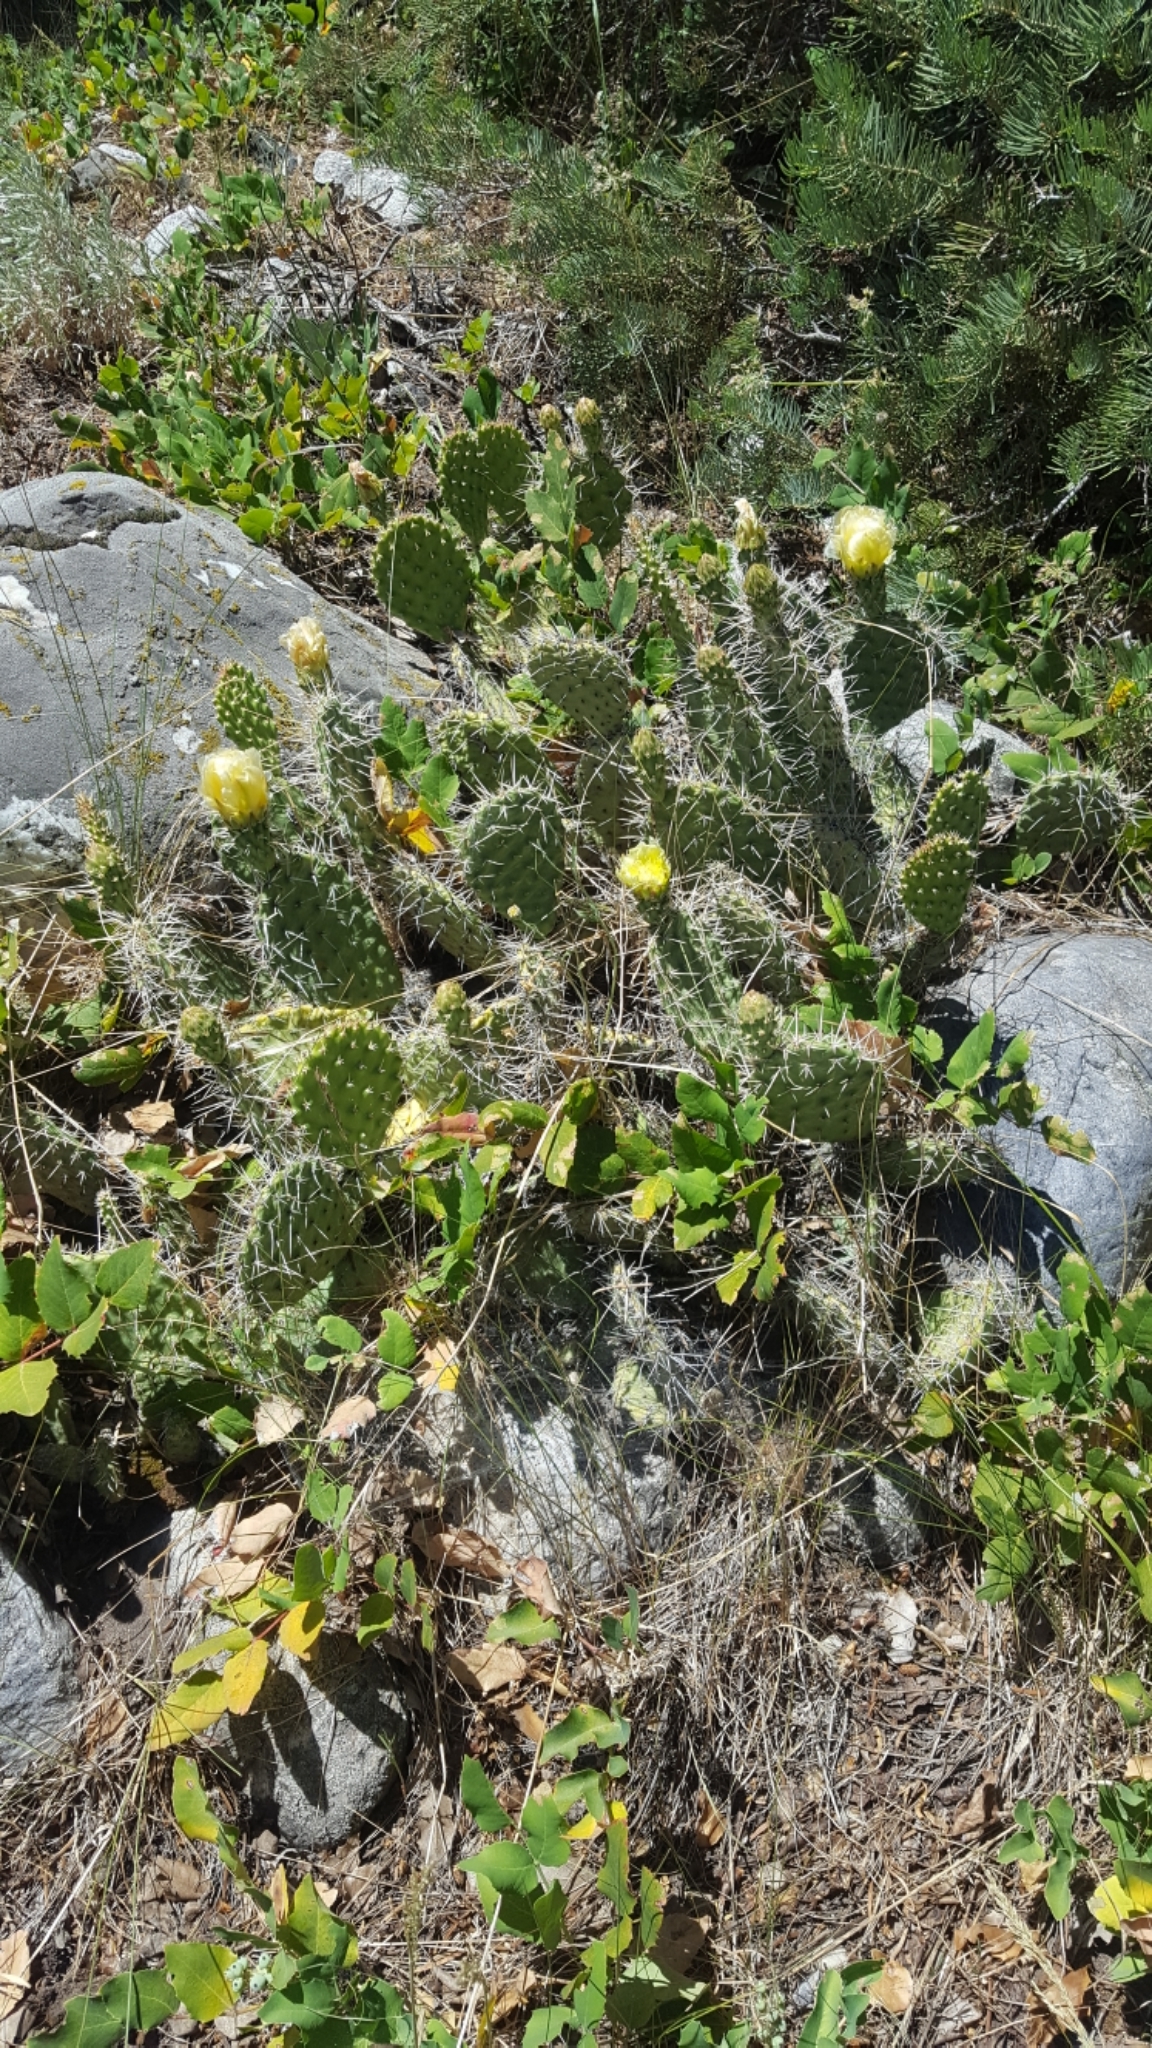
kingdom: Plantae
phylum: Tracheophyta
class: Magnoliopsida
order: Caryophyllales
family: Cactaceae
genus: Opuntia
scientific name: Opuntia polyacantha
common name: Plains prickly-pear
